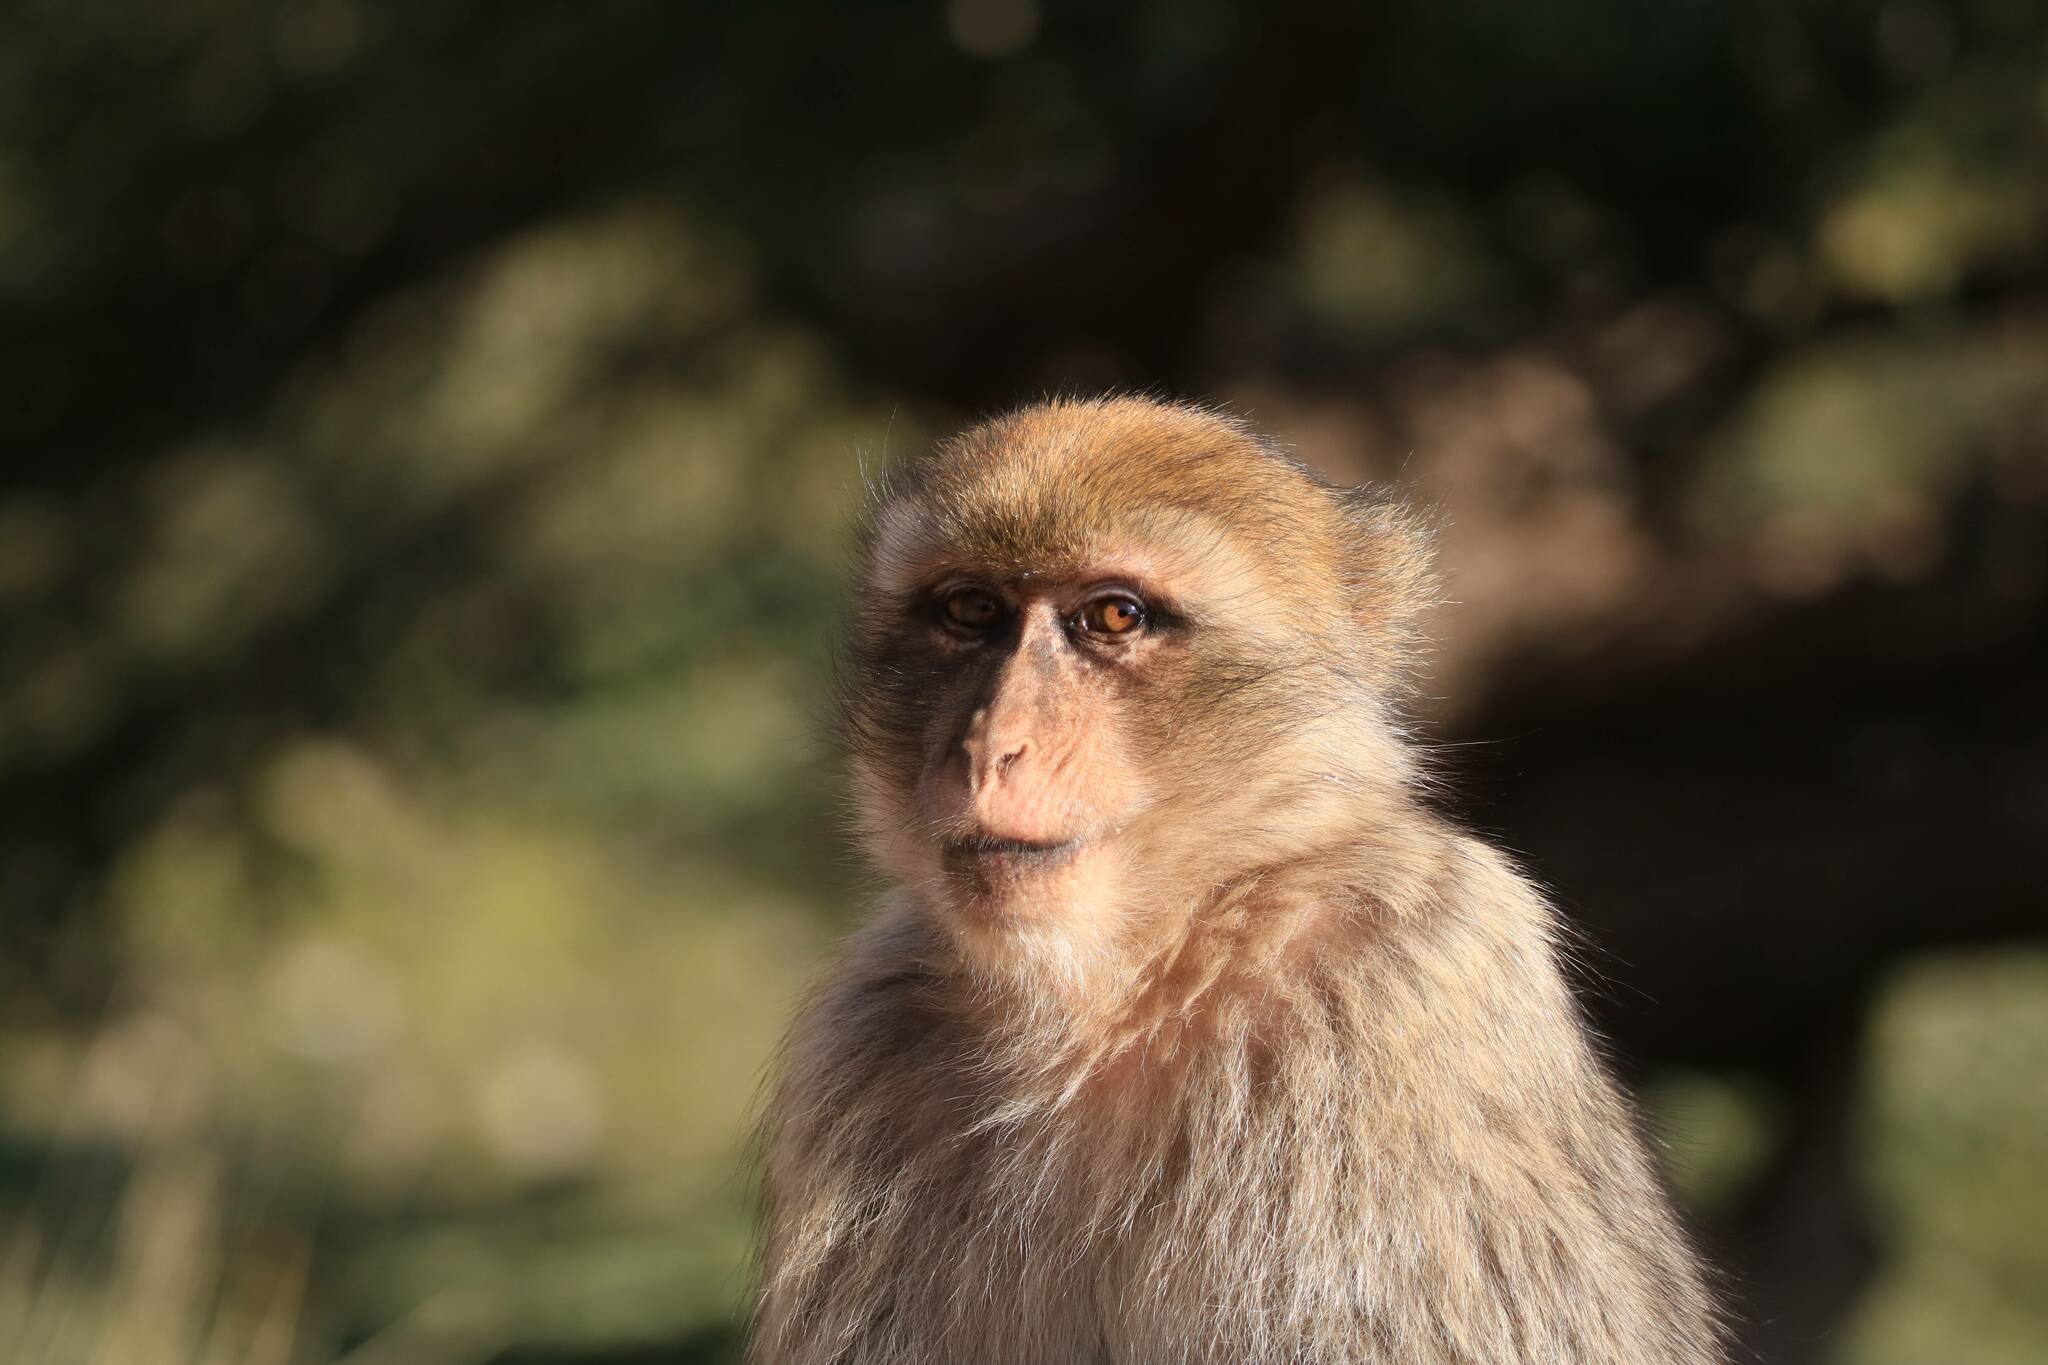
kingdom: Animalia
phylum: Chordata
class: Mammalia
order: Primates
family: Cercopithecidae
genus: Macaca
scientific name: Macaca sylvanus
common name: Barbary macaque
